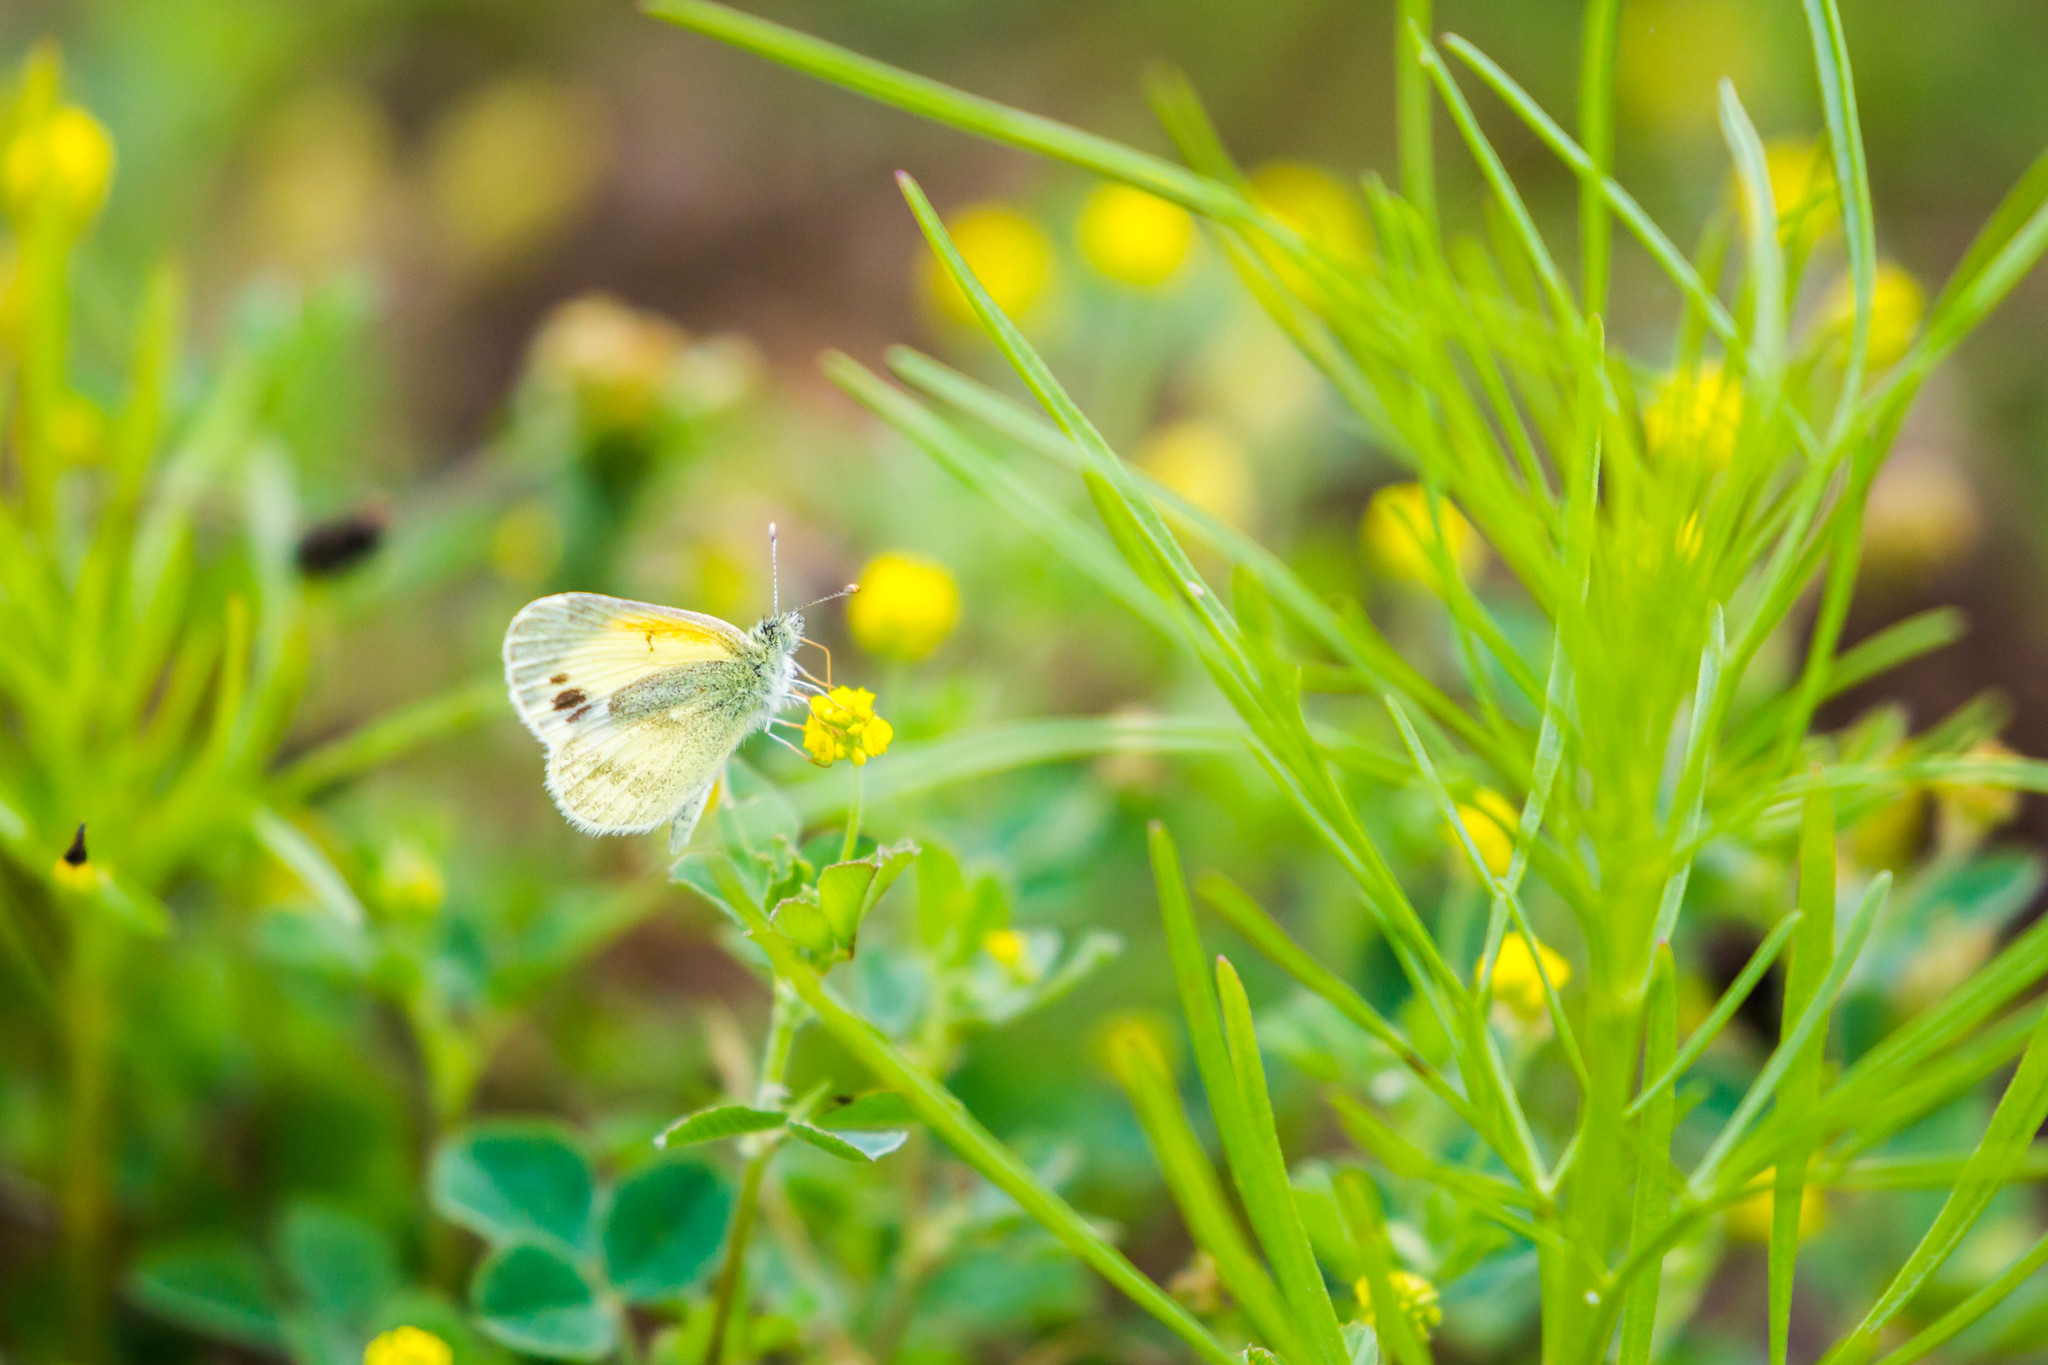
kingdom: Animalia
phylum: Arthropoda
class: Insecta
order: Lepidoptera
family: Pieridae
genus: Nathalis
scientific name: Nathalis iole
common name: Dainty sulphur
